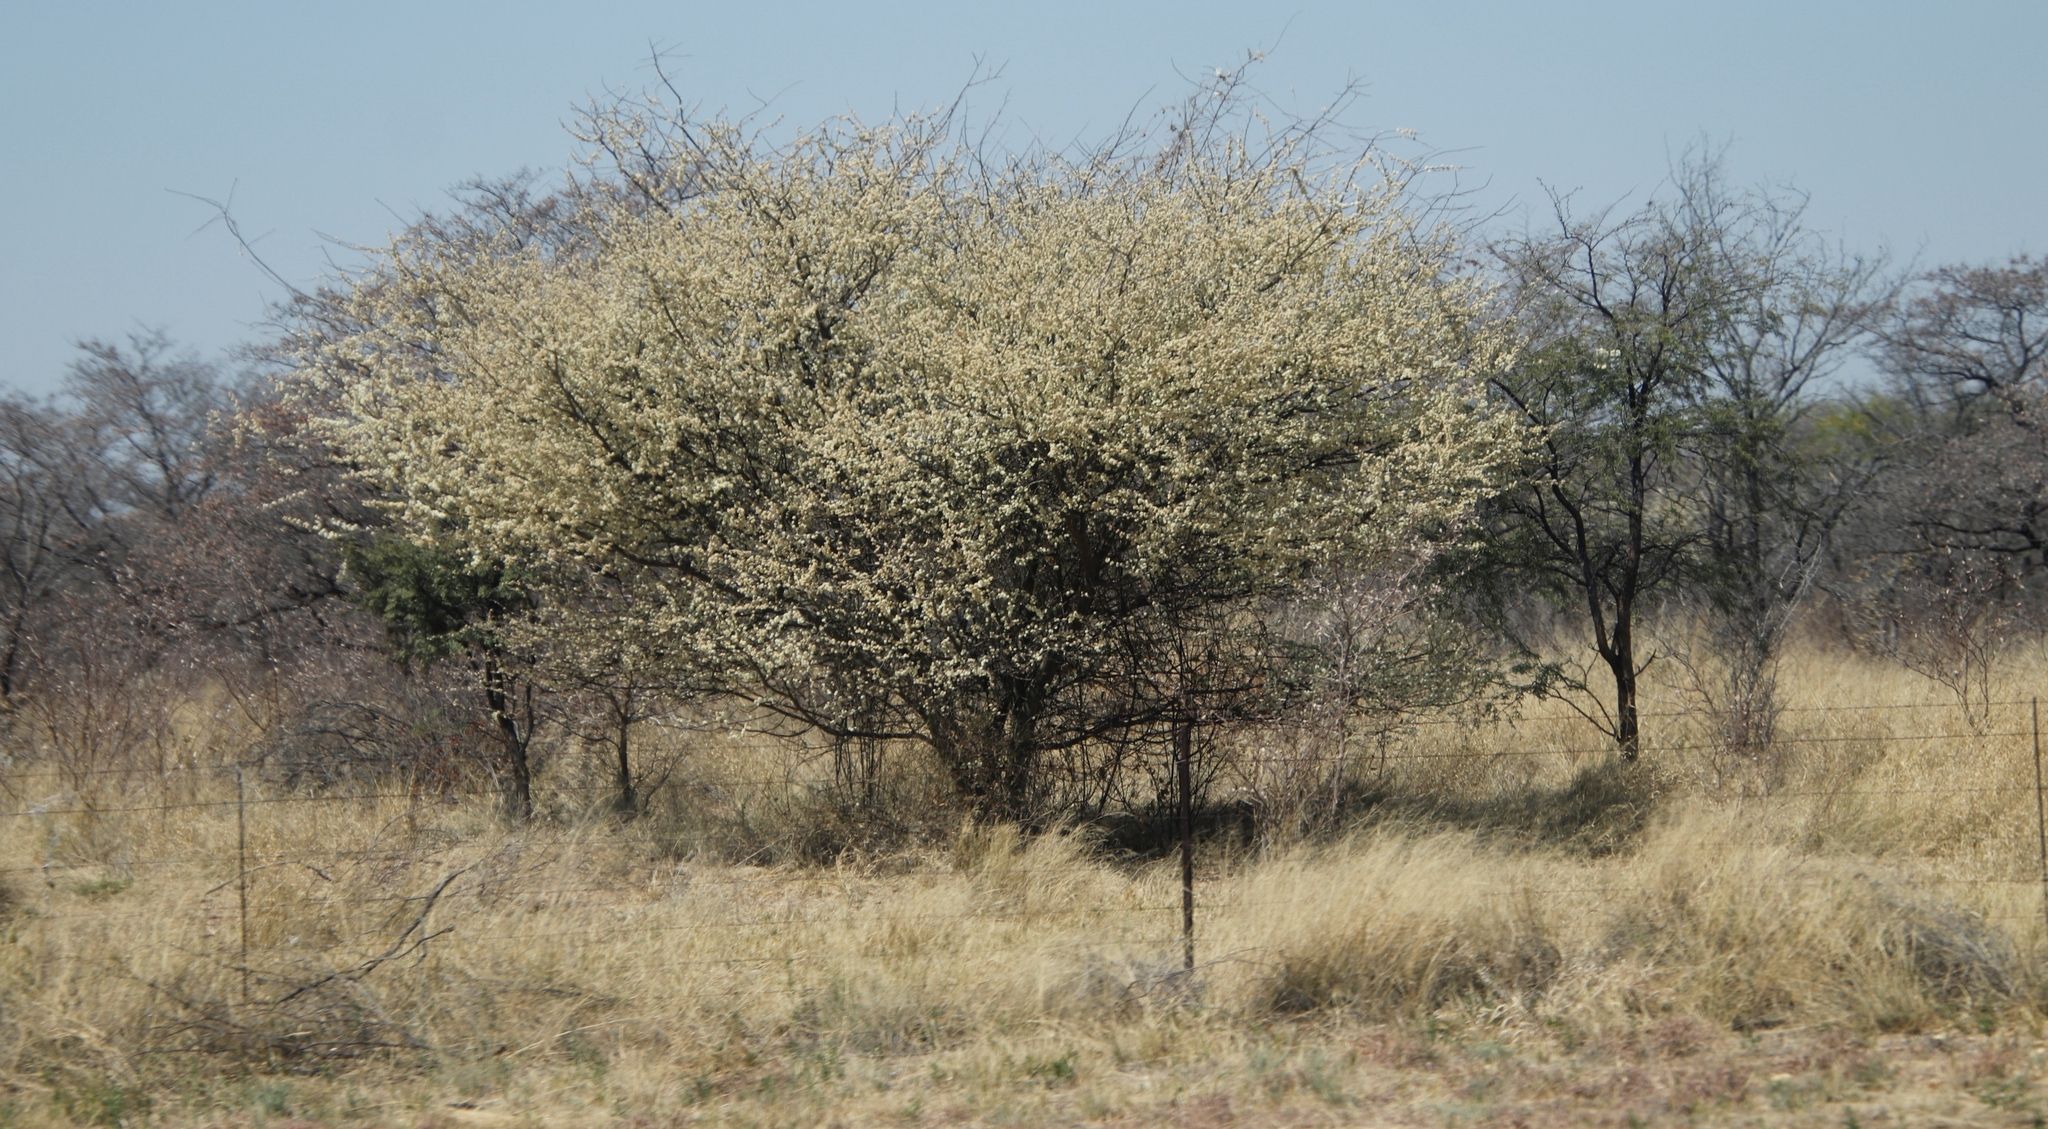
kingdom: Plantae
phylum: Tracheophyta
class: Magnoliopsida
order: Fabales
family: Fabaceae
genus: Senegalia
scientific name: Senegalia mellifera
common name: Hookthorn
